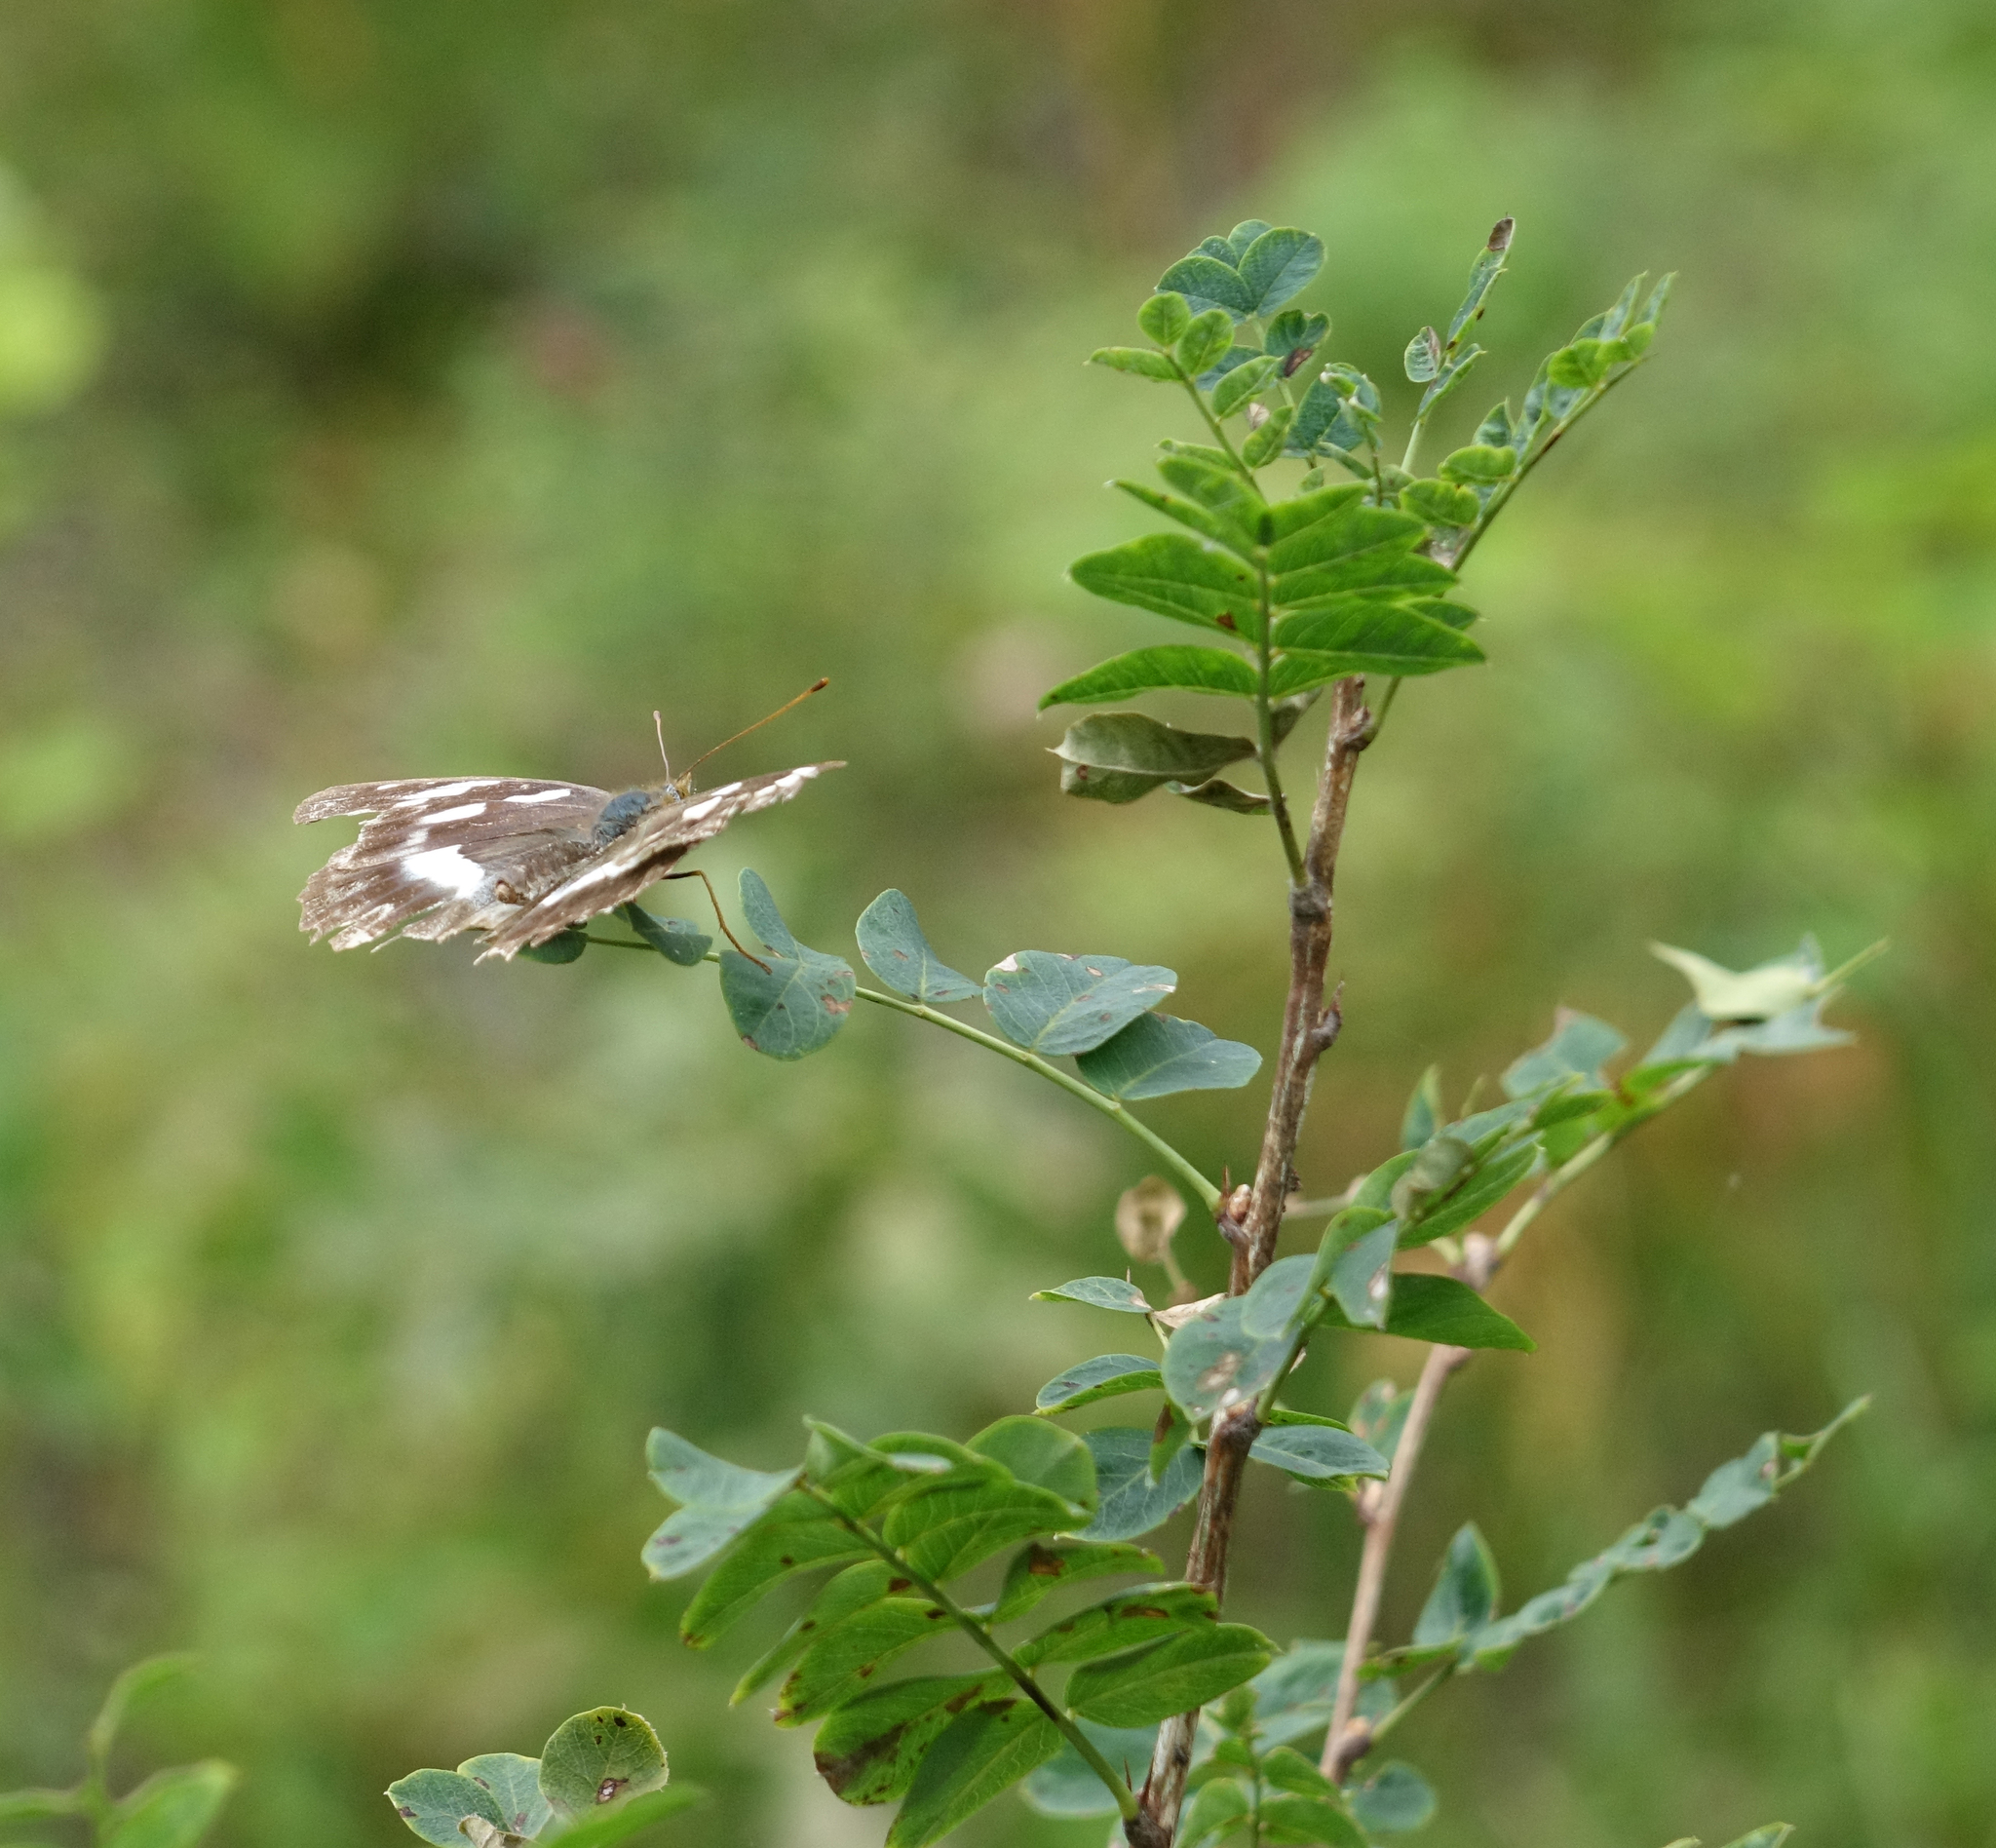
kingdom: Plantae
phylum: Tracheophyta
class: Magnoliopsida
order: Fabales
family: Fabaceae
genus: Caragana
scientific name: Caragana arborescens
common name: Siberian peashrub
